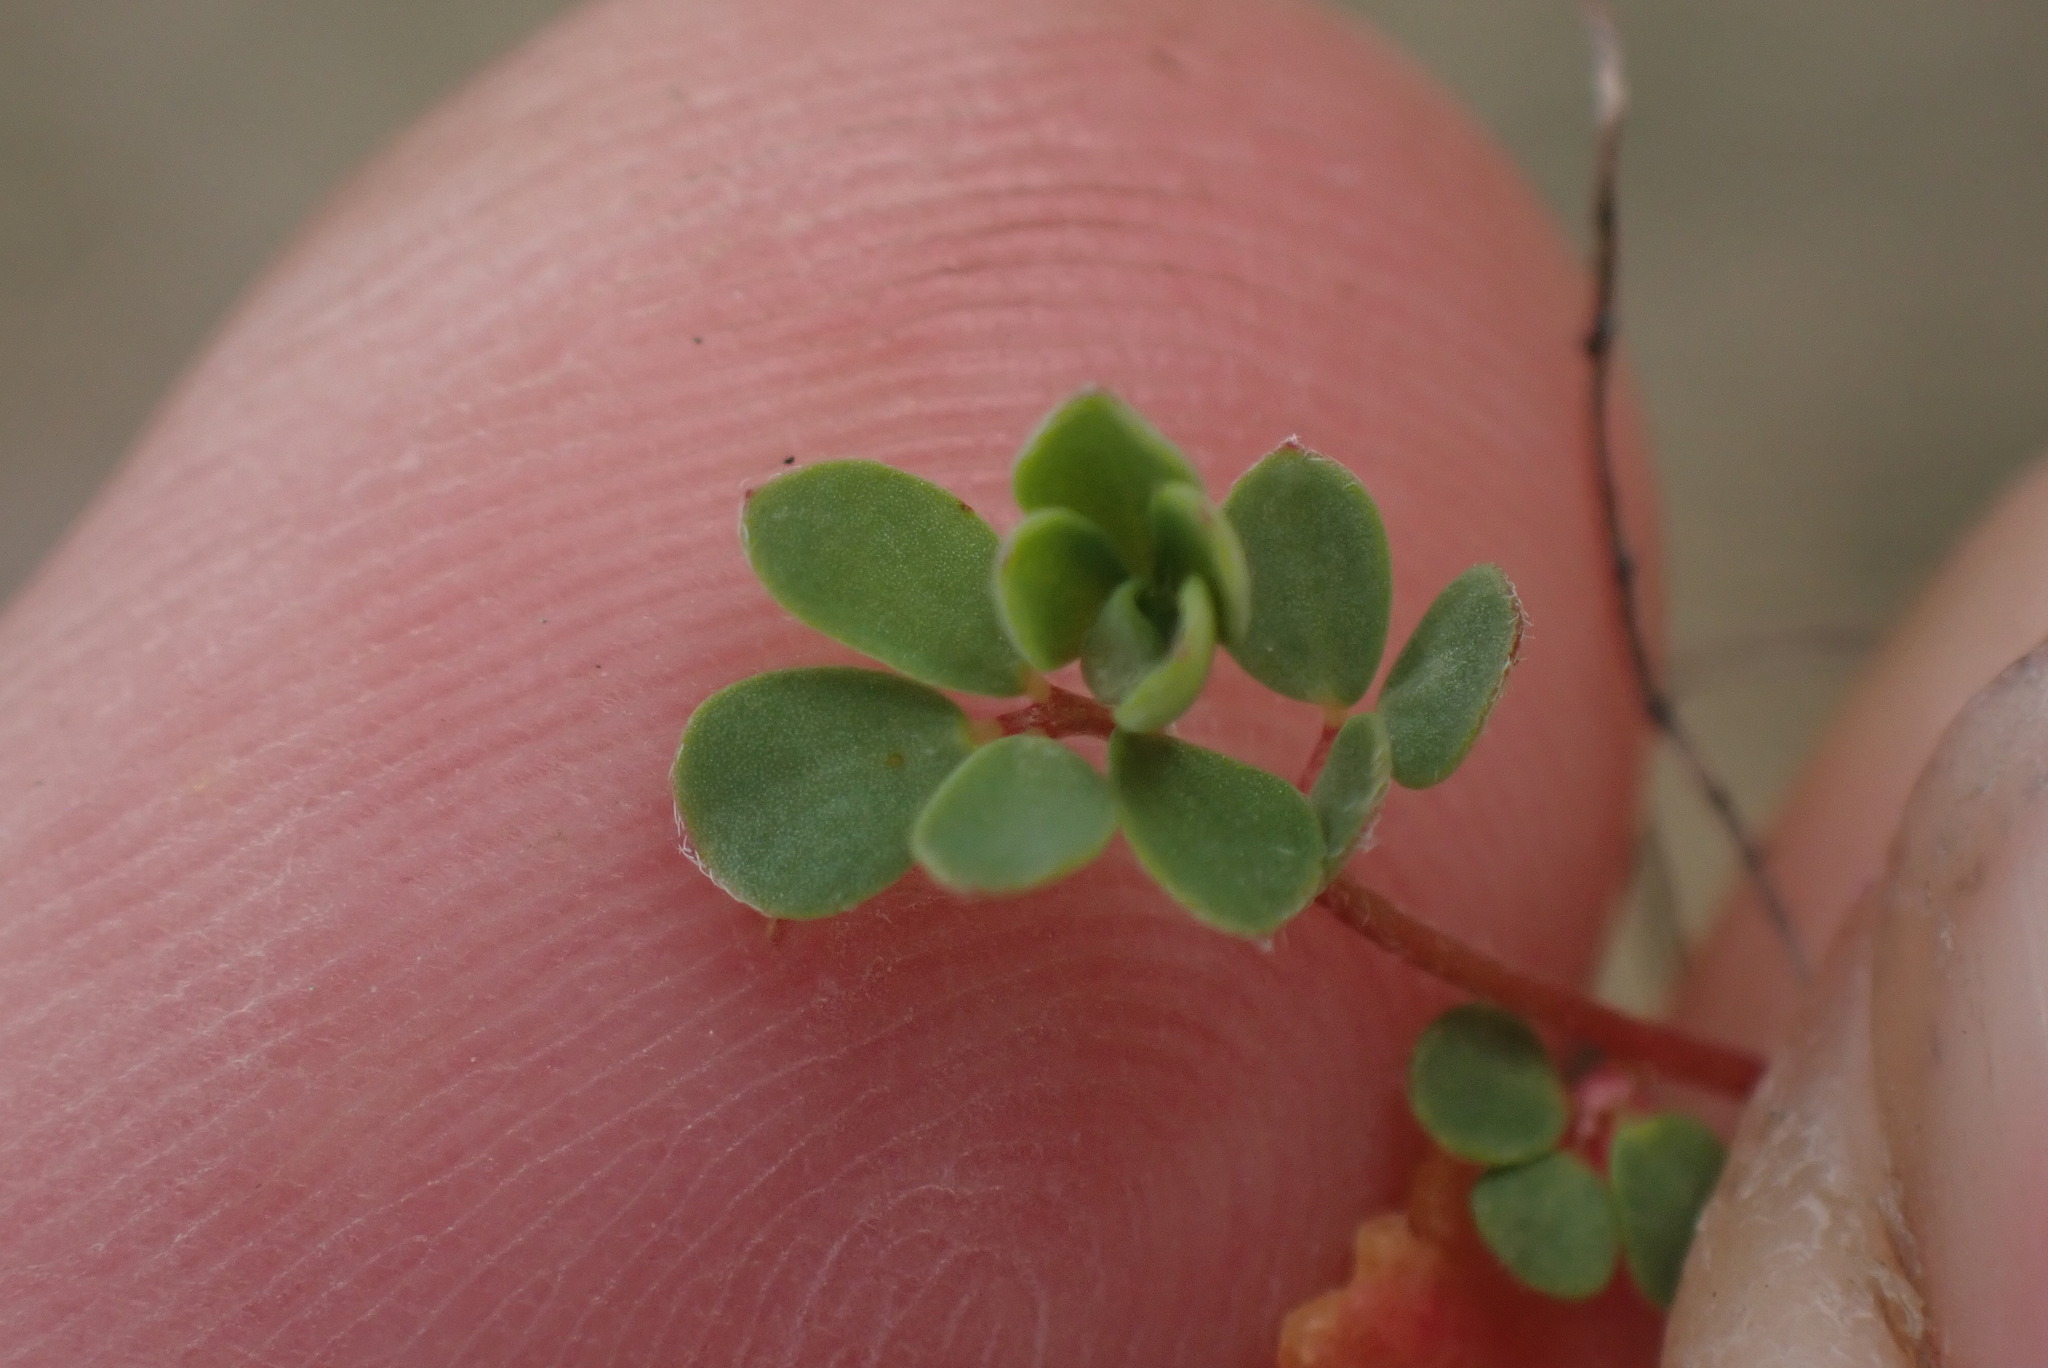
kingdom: Plantae
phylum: Tracheophyta
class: Magnoliopsida
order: Fabales
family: Fabaceae
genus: Acmispon
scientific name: Acmispon parviflorus
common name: Desert deer-vetch
